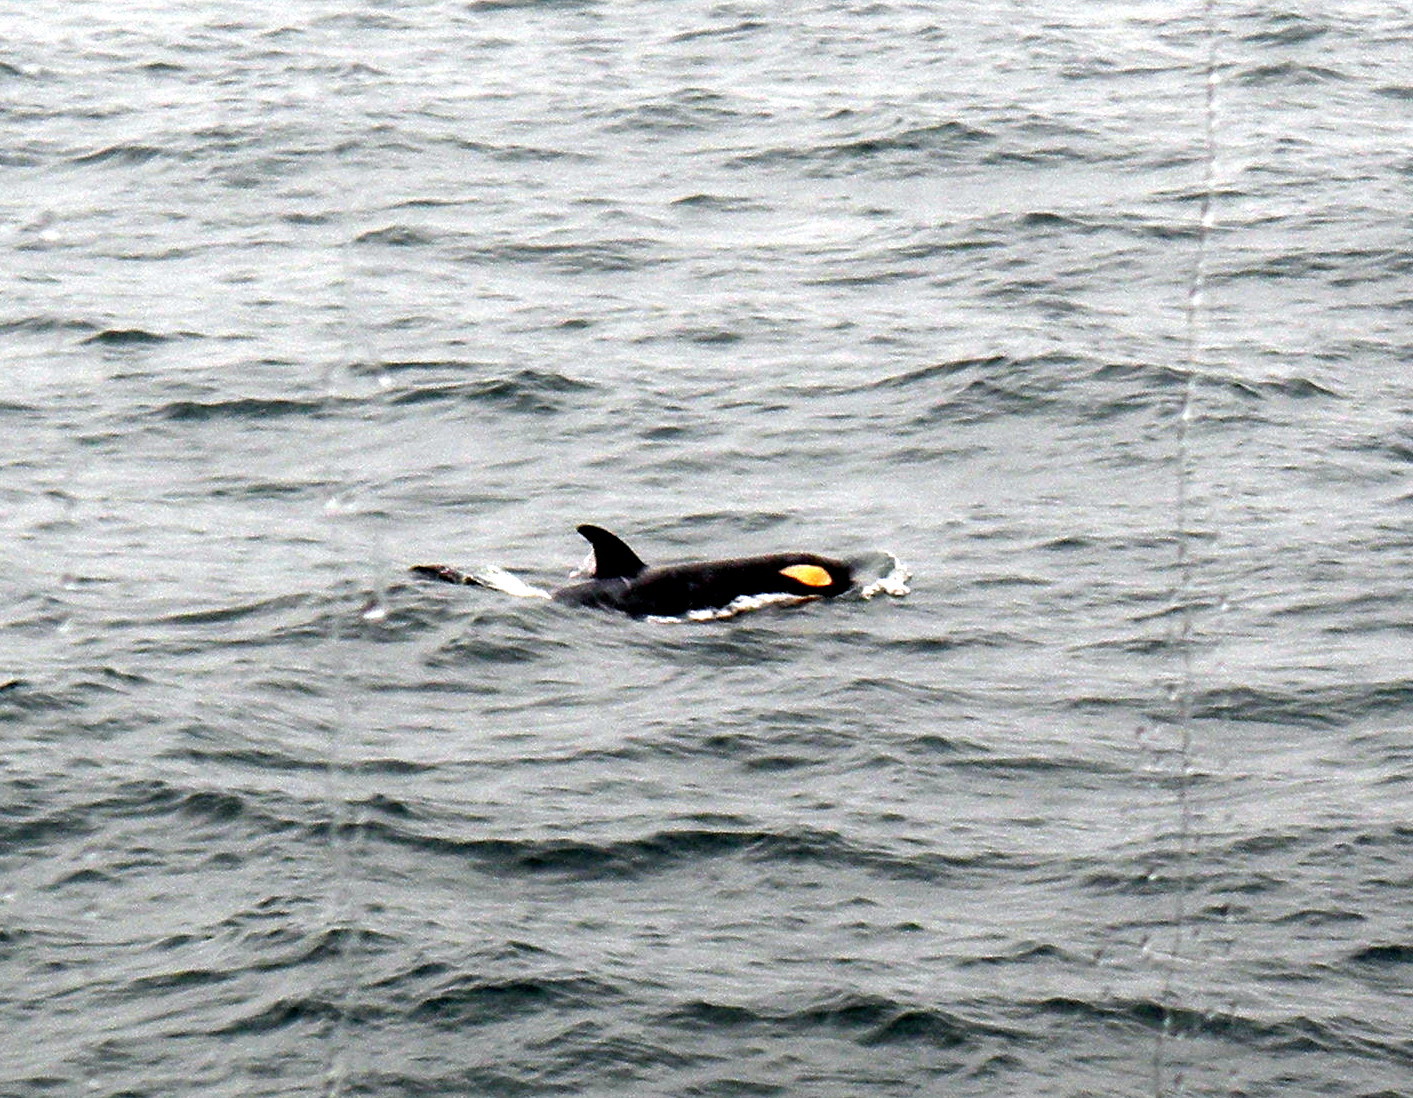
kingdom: Animalia
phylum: Chordata
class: Mammalia
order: Cetacea
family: Delphinidae
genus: Orcinus
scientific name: Orcinus orca
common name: Killer whale
